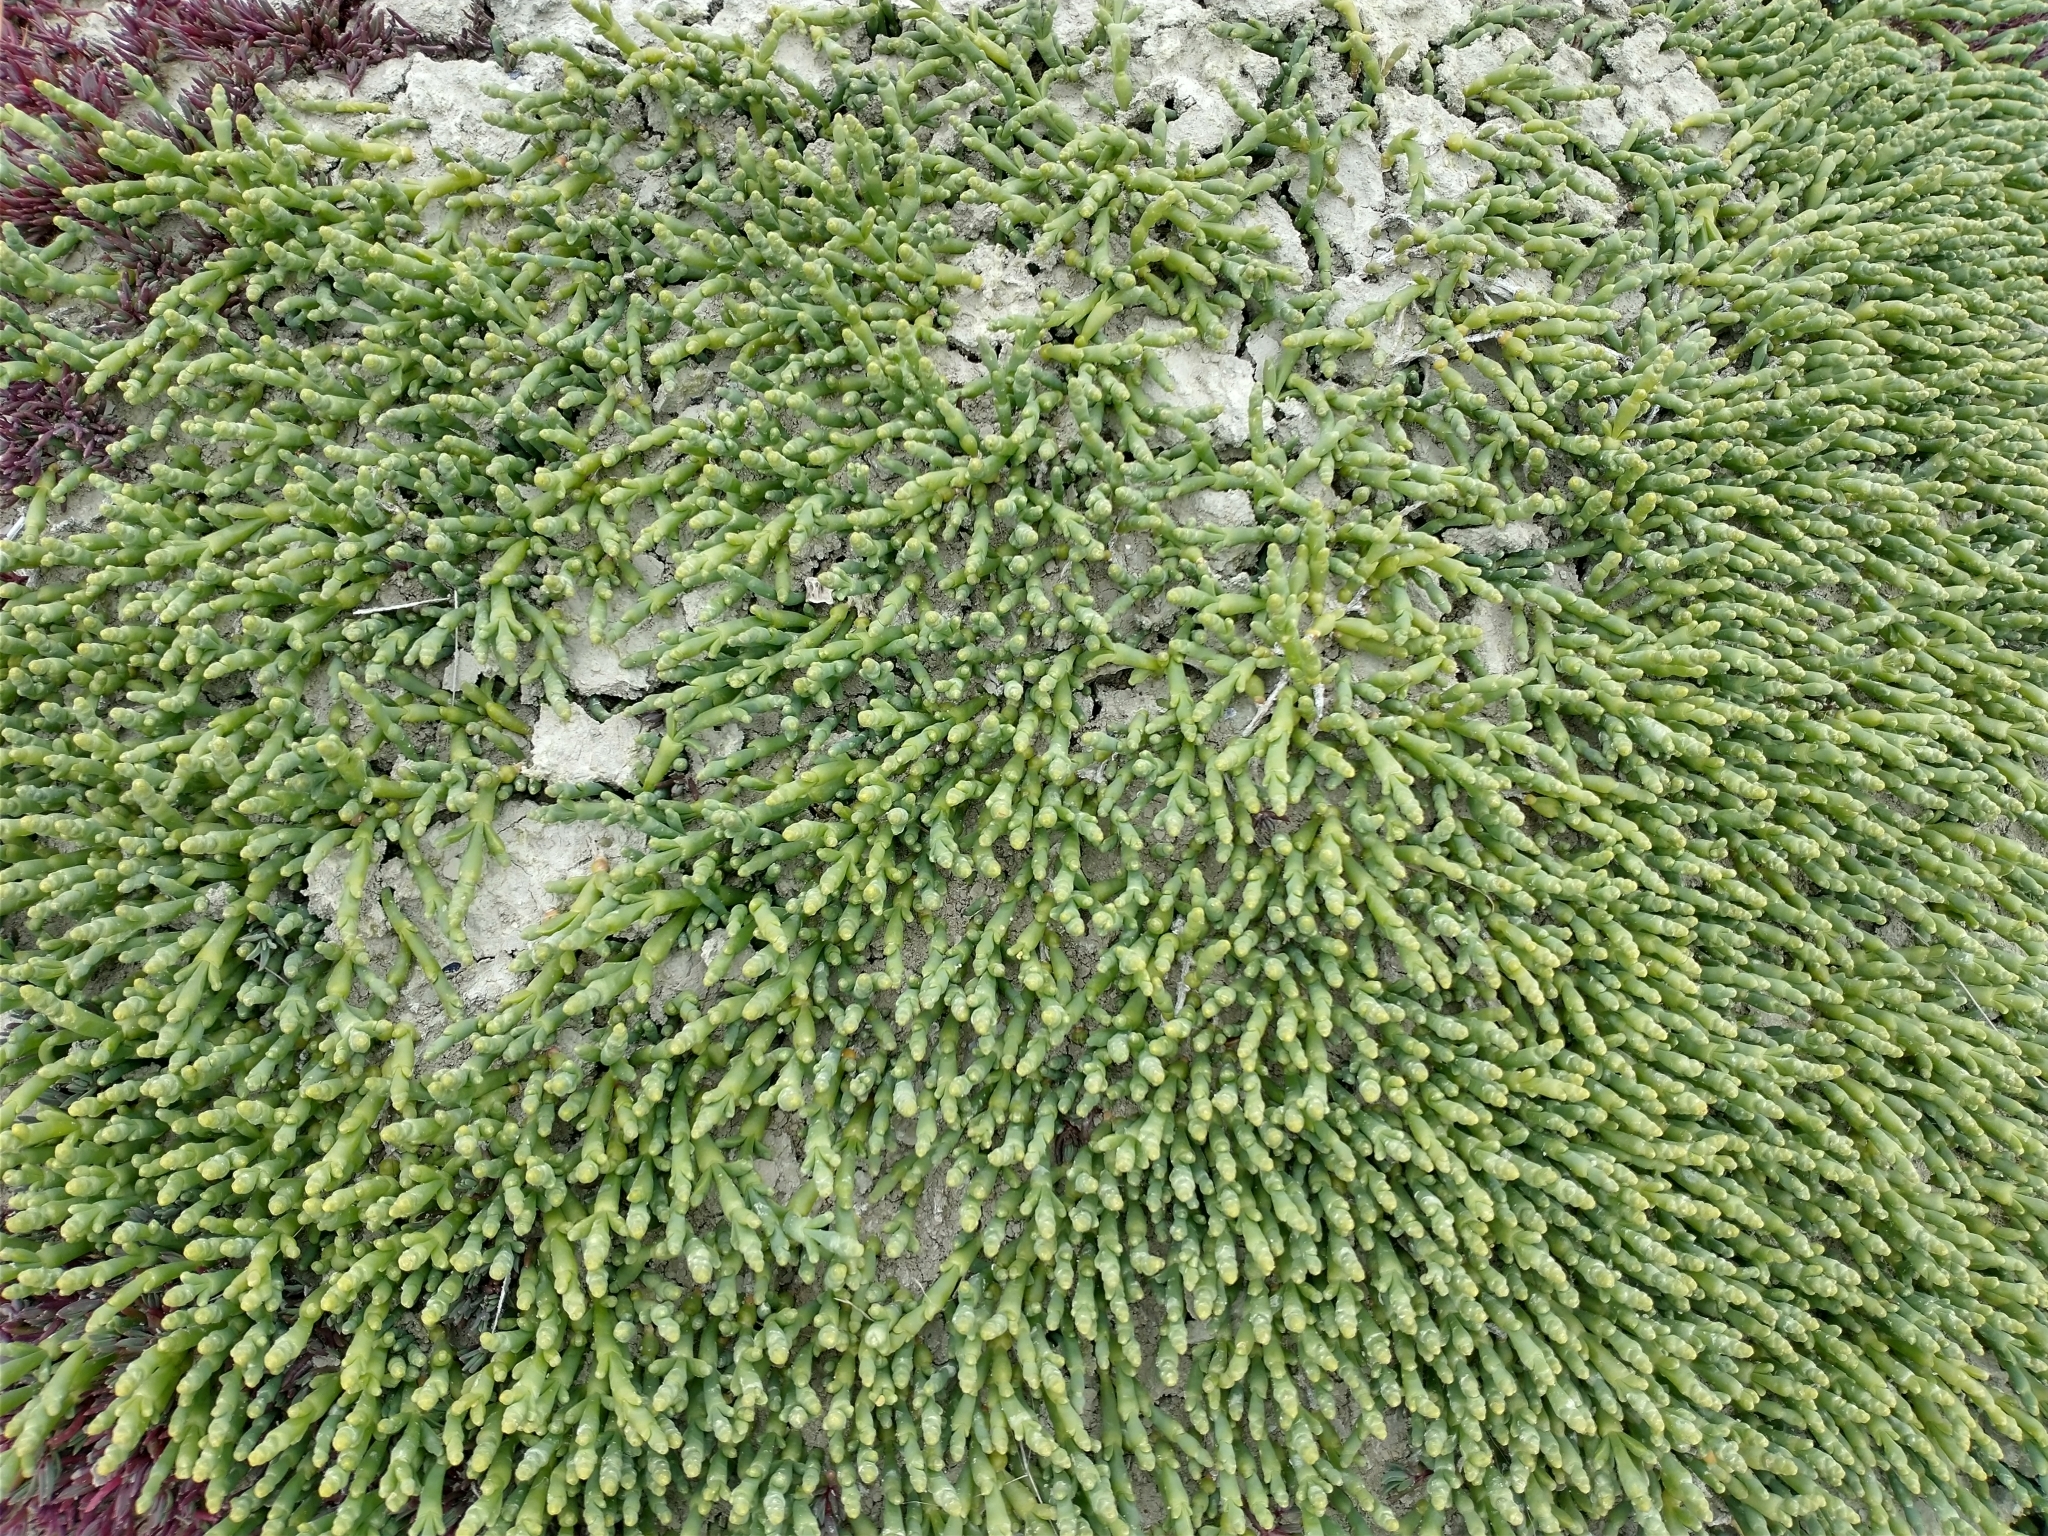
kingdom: Plantae
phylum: Tracheophyta
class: Magnoliopsida
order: Caryophyllales
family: Amaranthaceae
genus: Salicornia
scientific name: Salicornia magellanica
